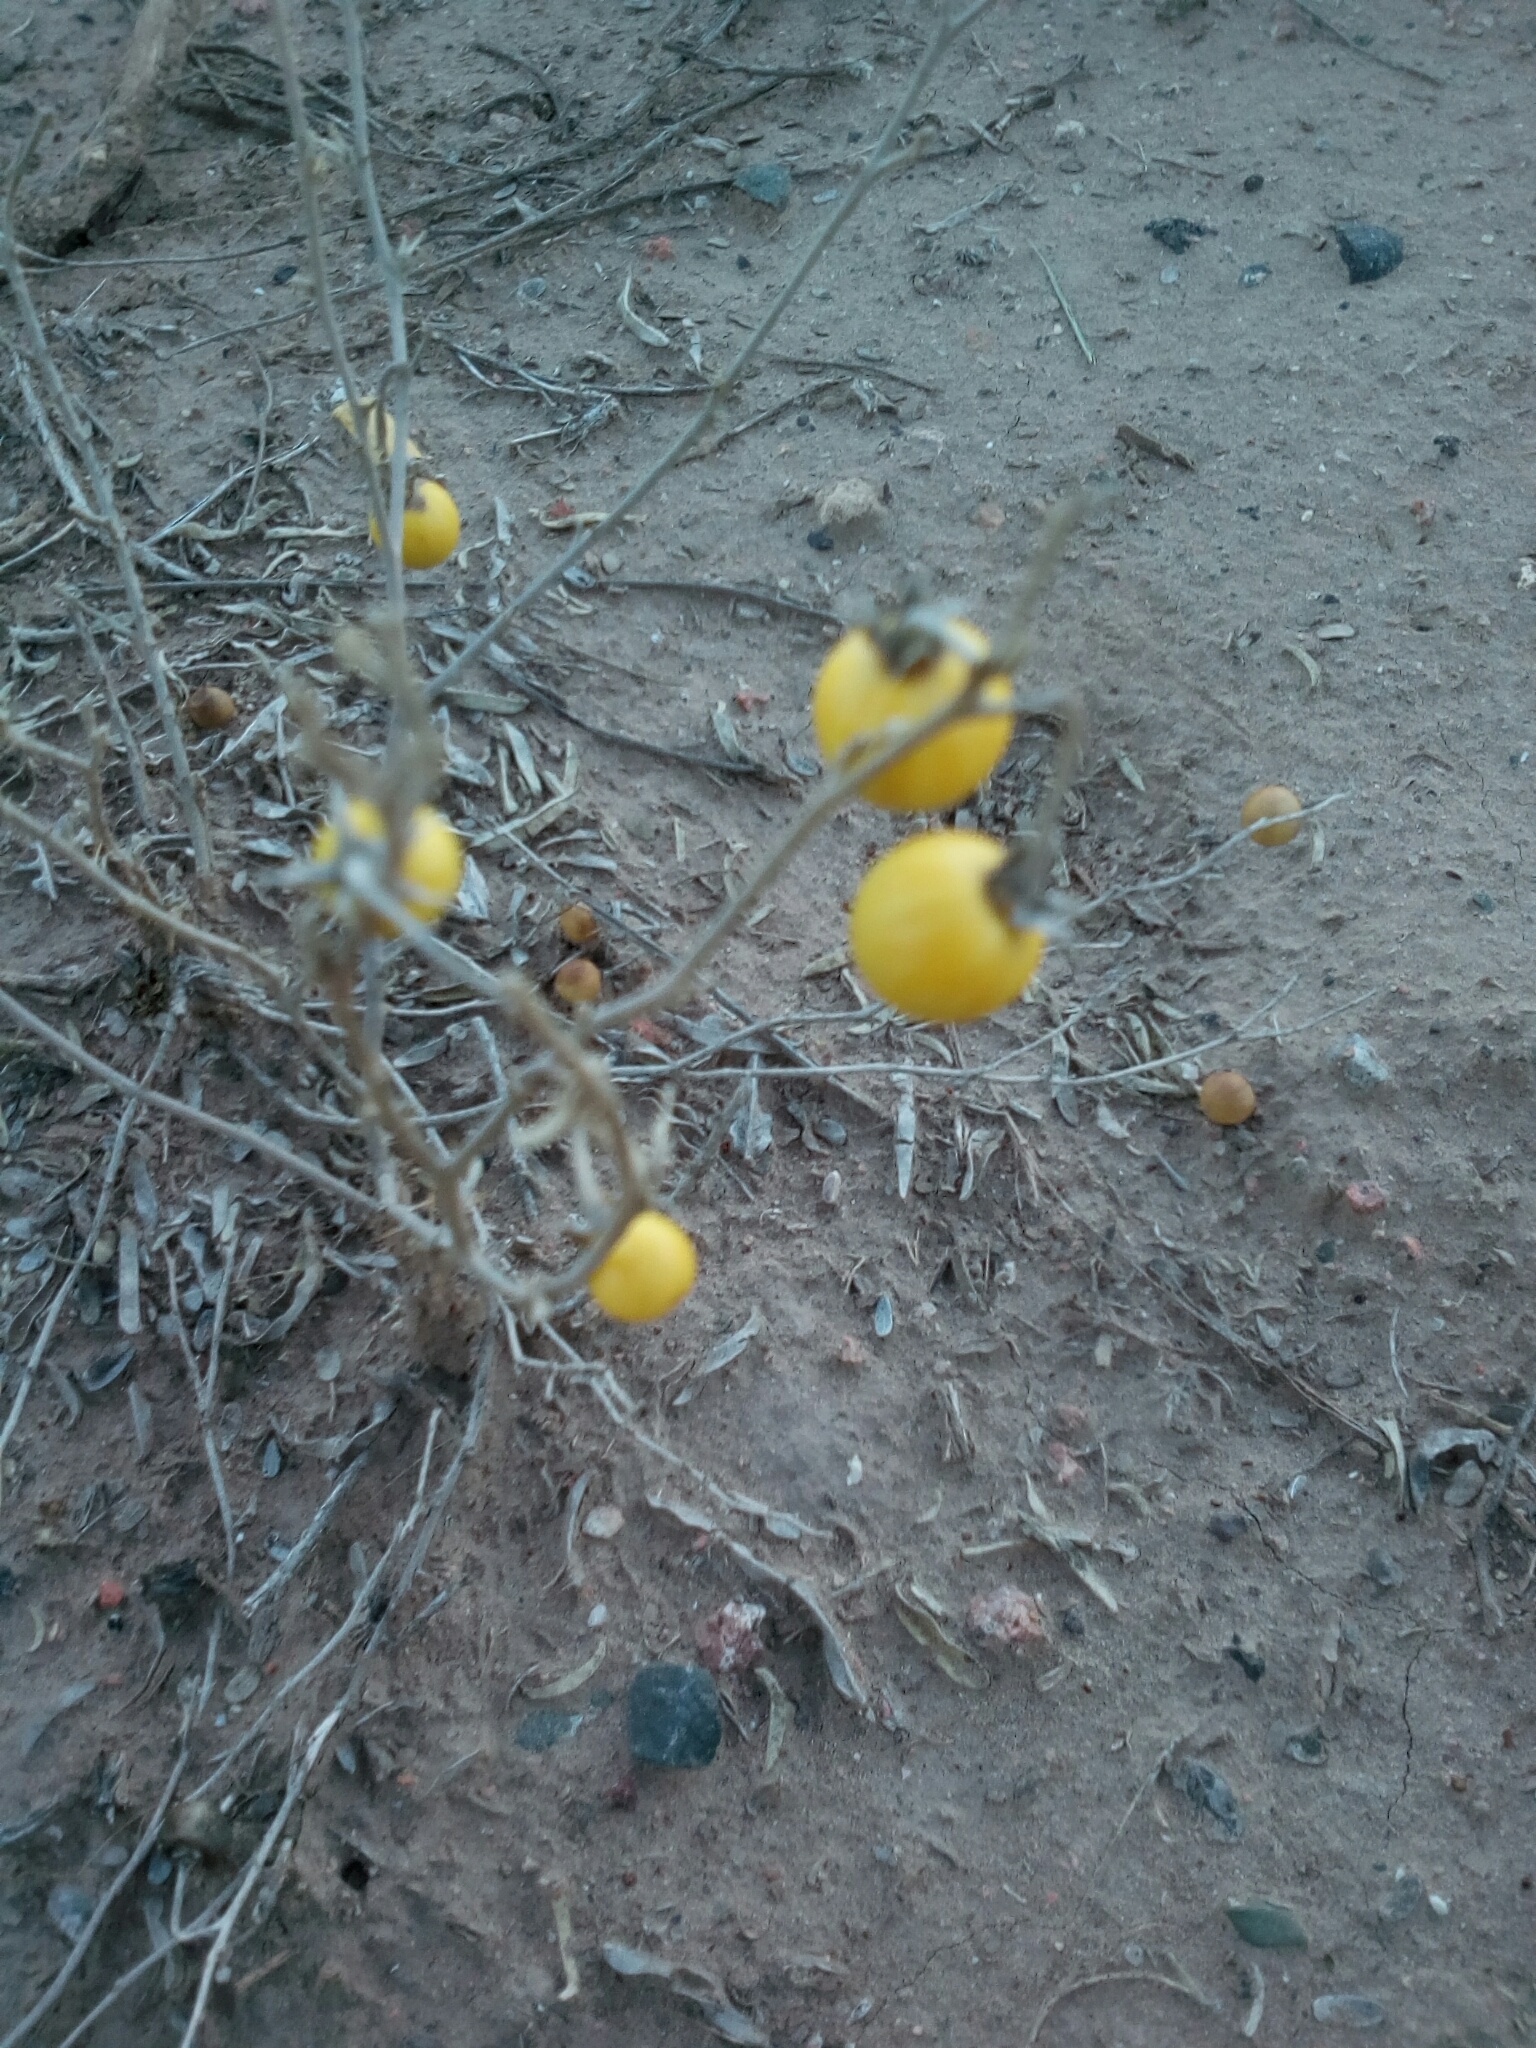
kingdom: Plantae
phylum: Tracheophyta
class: Magnoliopsida
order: Solanales
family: Solanaceae
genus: Solanum
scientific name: Solanum elaeagnifolium
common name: Silverleaf nightshade
